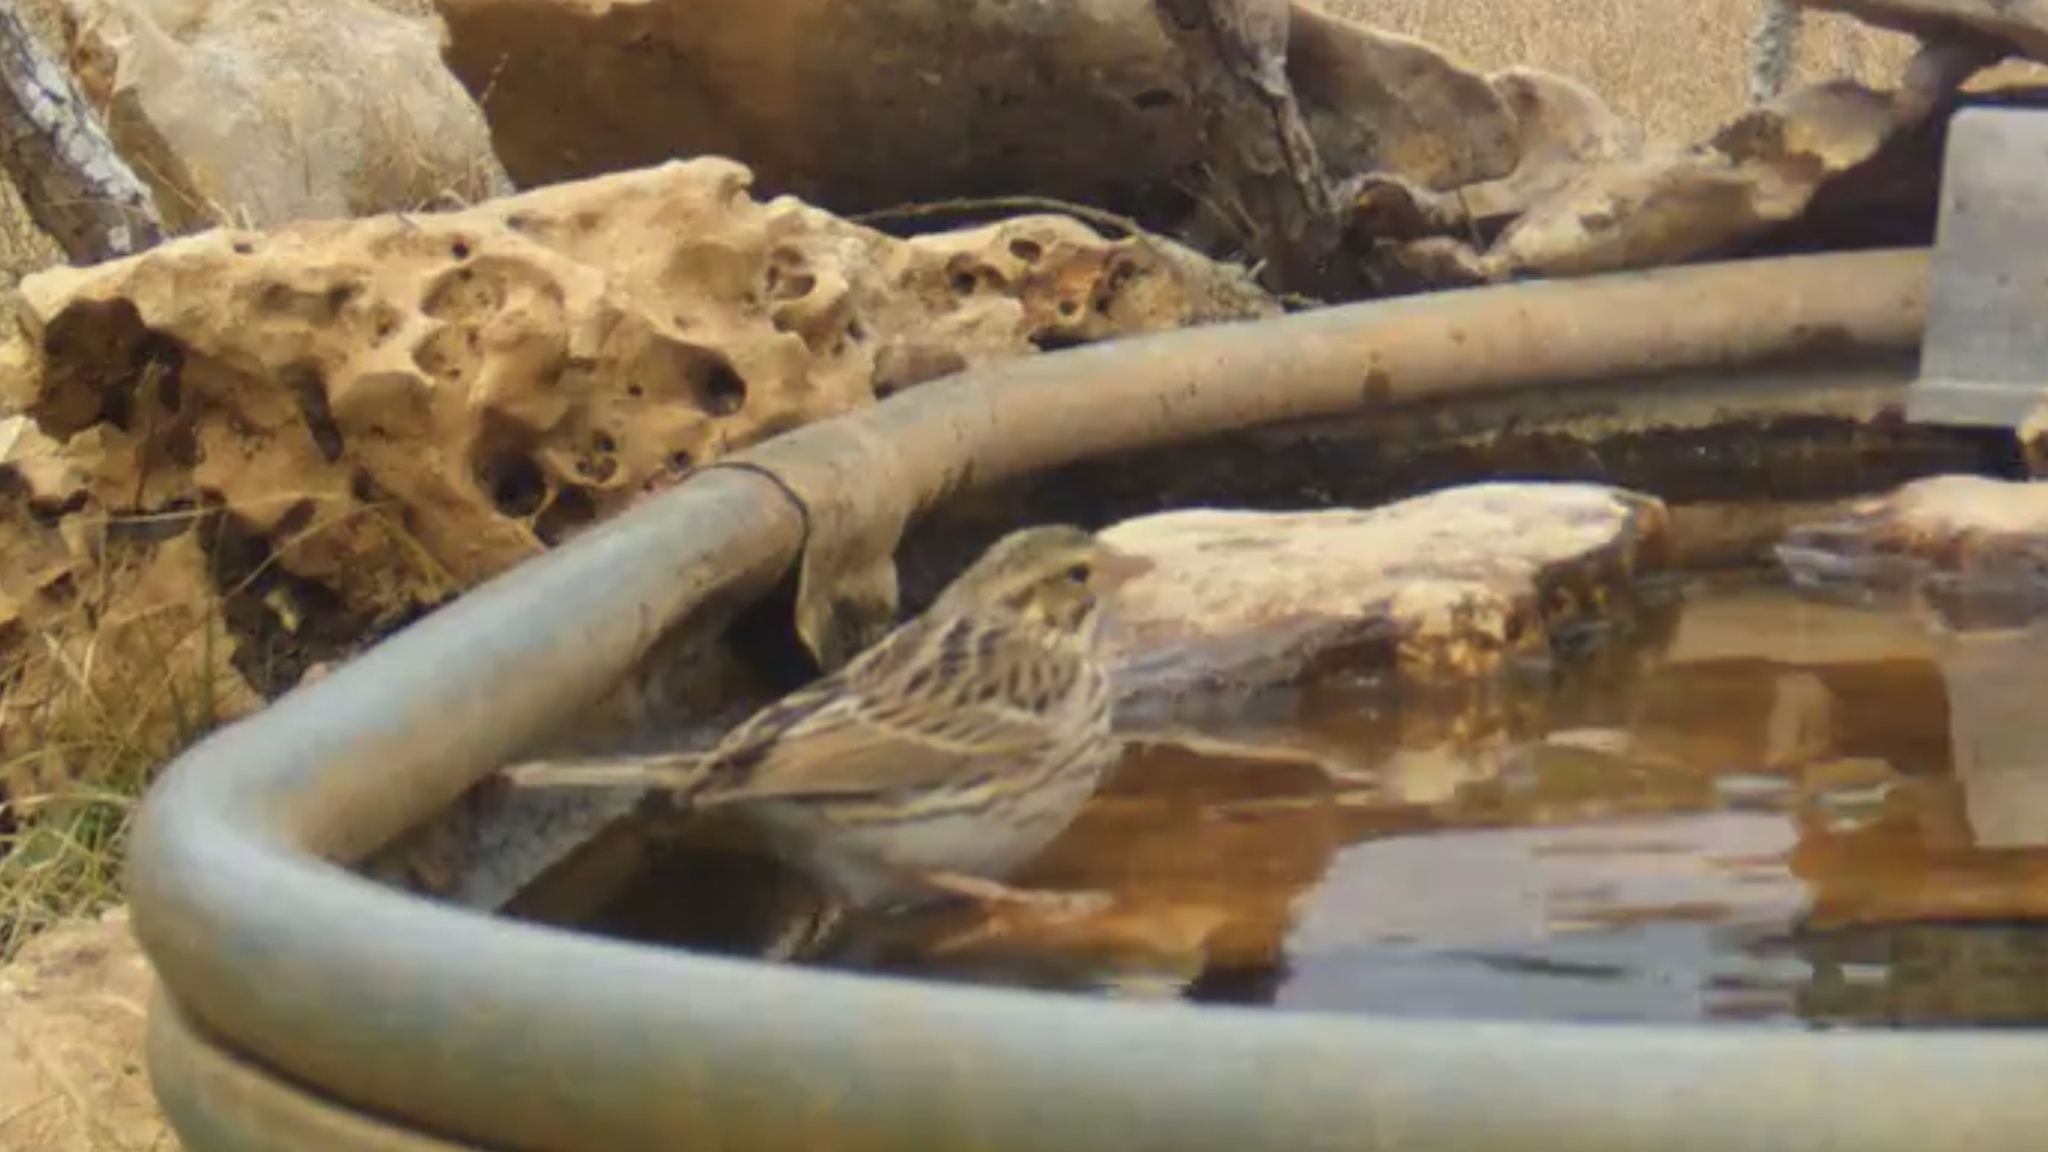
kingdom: Animalia
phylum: Chordata
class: Aves
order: Passeriformes
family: Passerellidae
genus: Passerculus
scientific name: Passerculus sandwichensis
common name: Savannah sparrow
